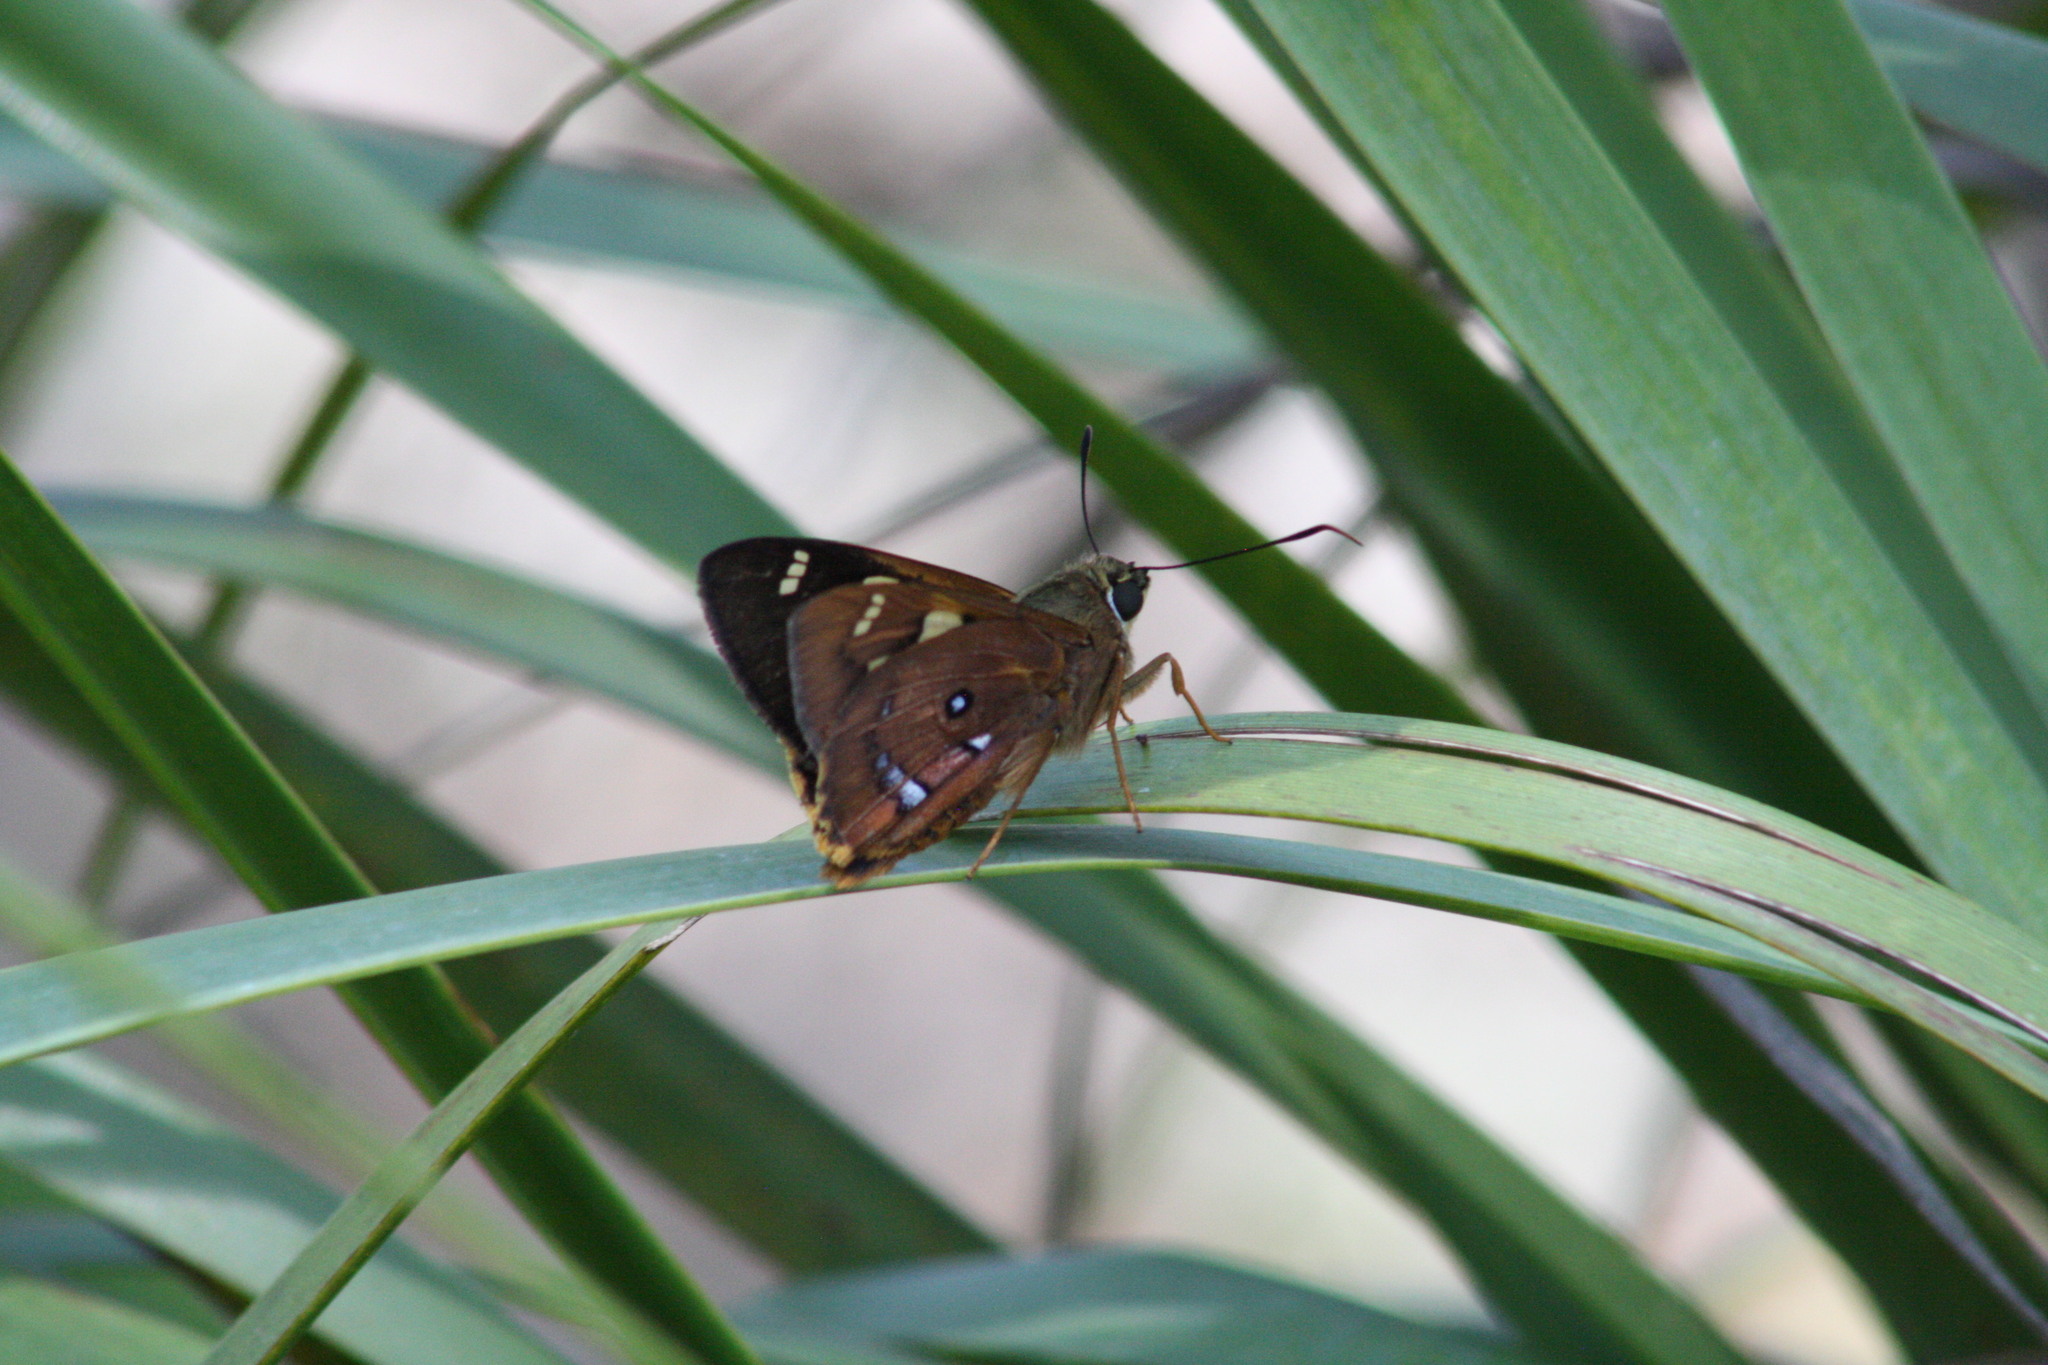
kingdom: Animalia
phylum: Arthropoda
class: Insecta
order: Lepidoptera
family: Hesperiidae
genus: Trapezites
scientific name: Trapezites symmomus
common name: Splendid ochre
